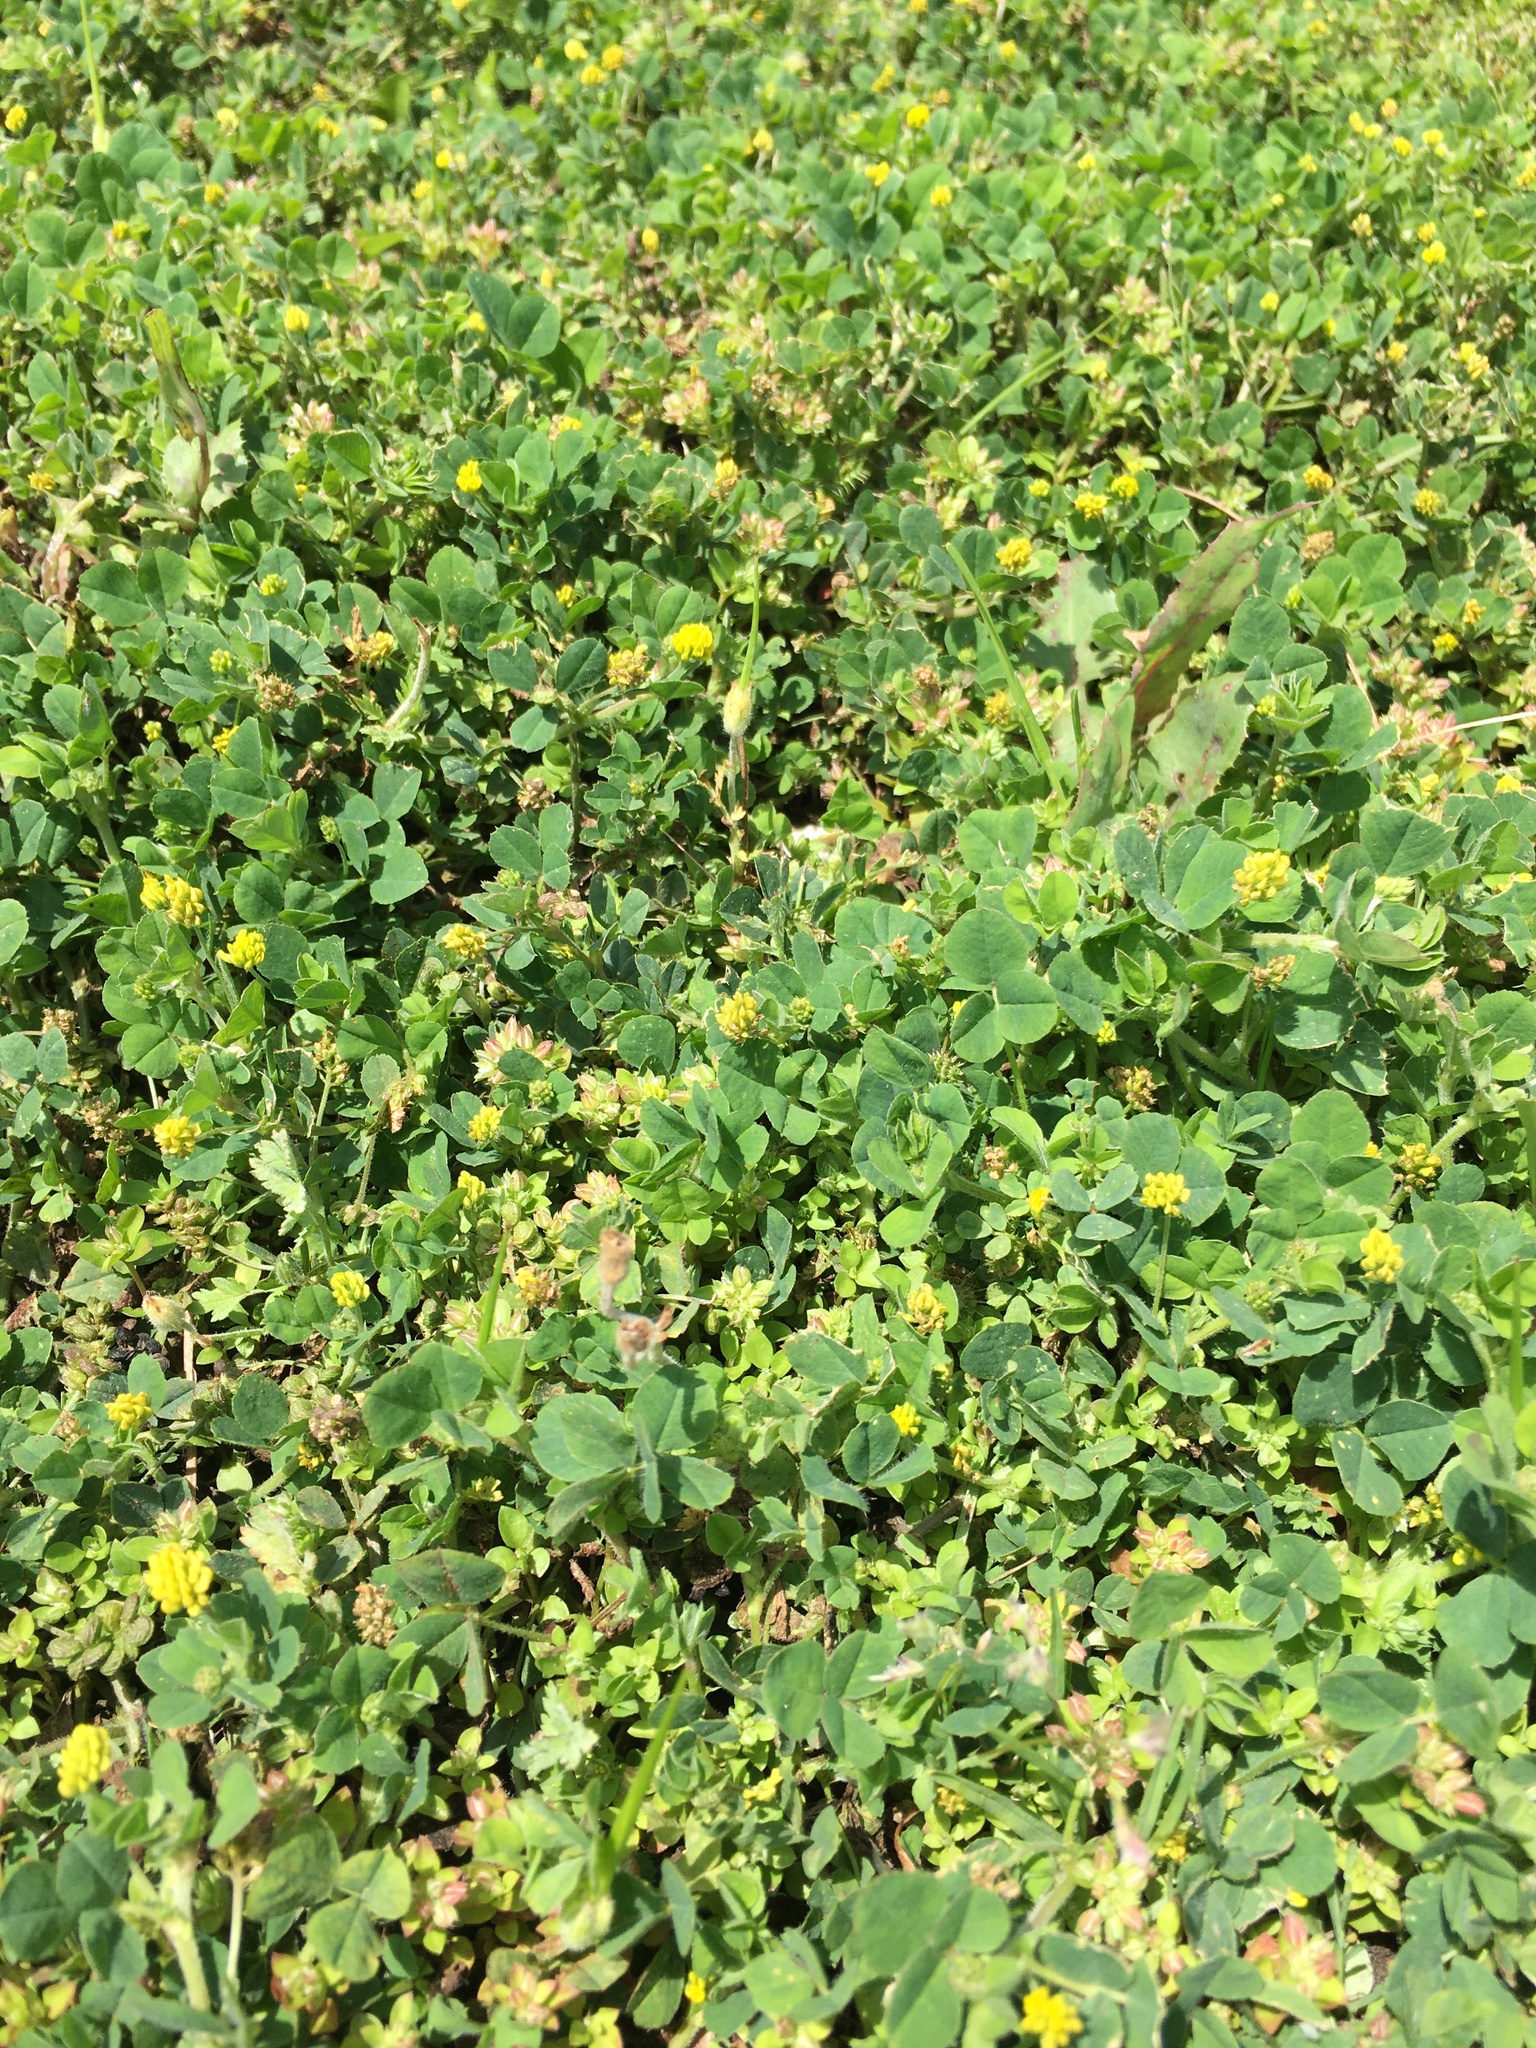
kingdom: Plantae
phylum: Tracheophyta
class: Magnoliopsida
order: Fabales
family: Fabaceae
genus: Medicago
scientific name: Medicago lupulina
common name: Black medick
